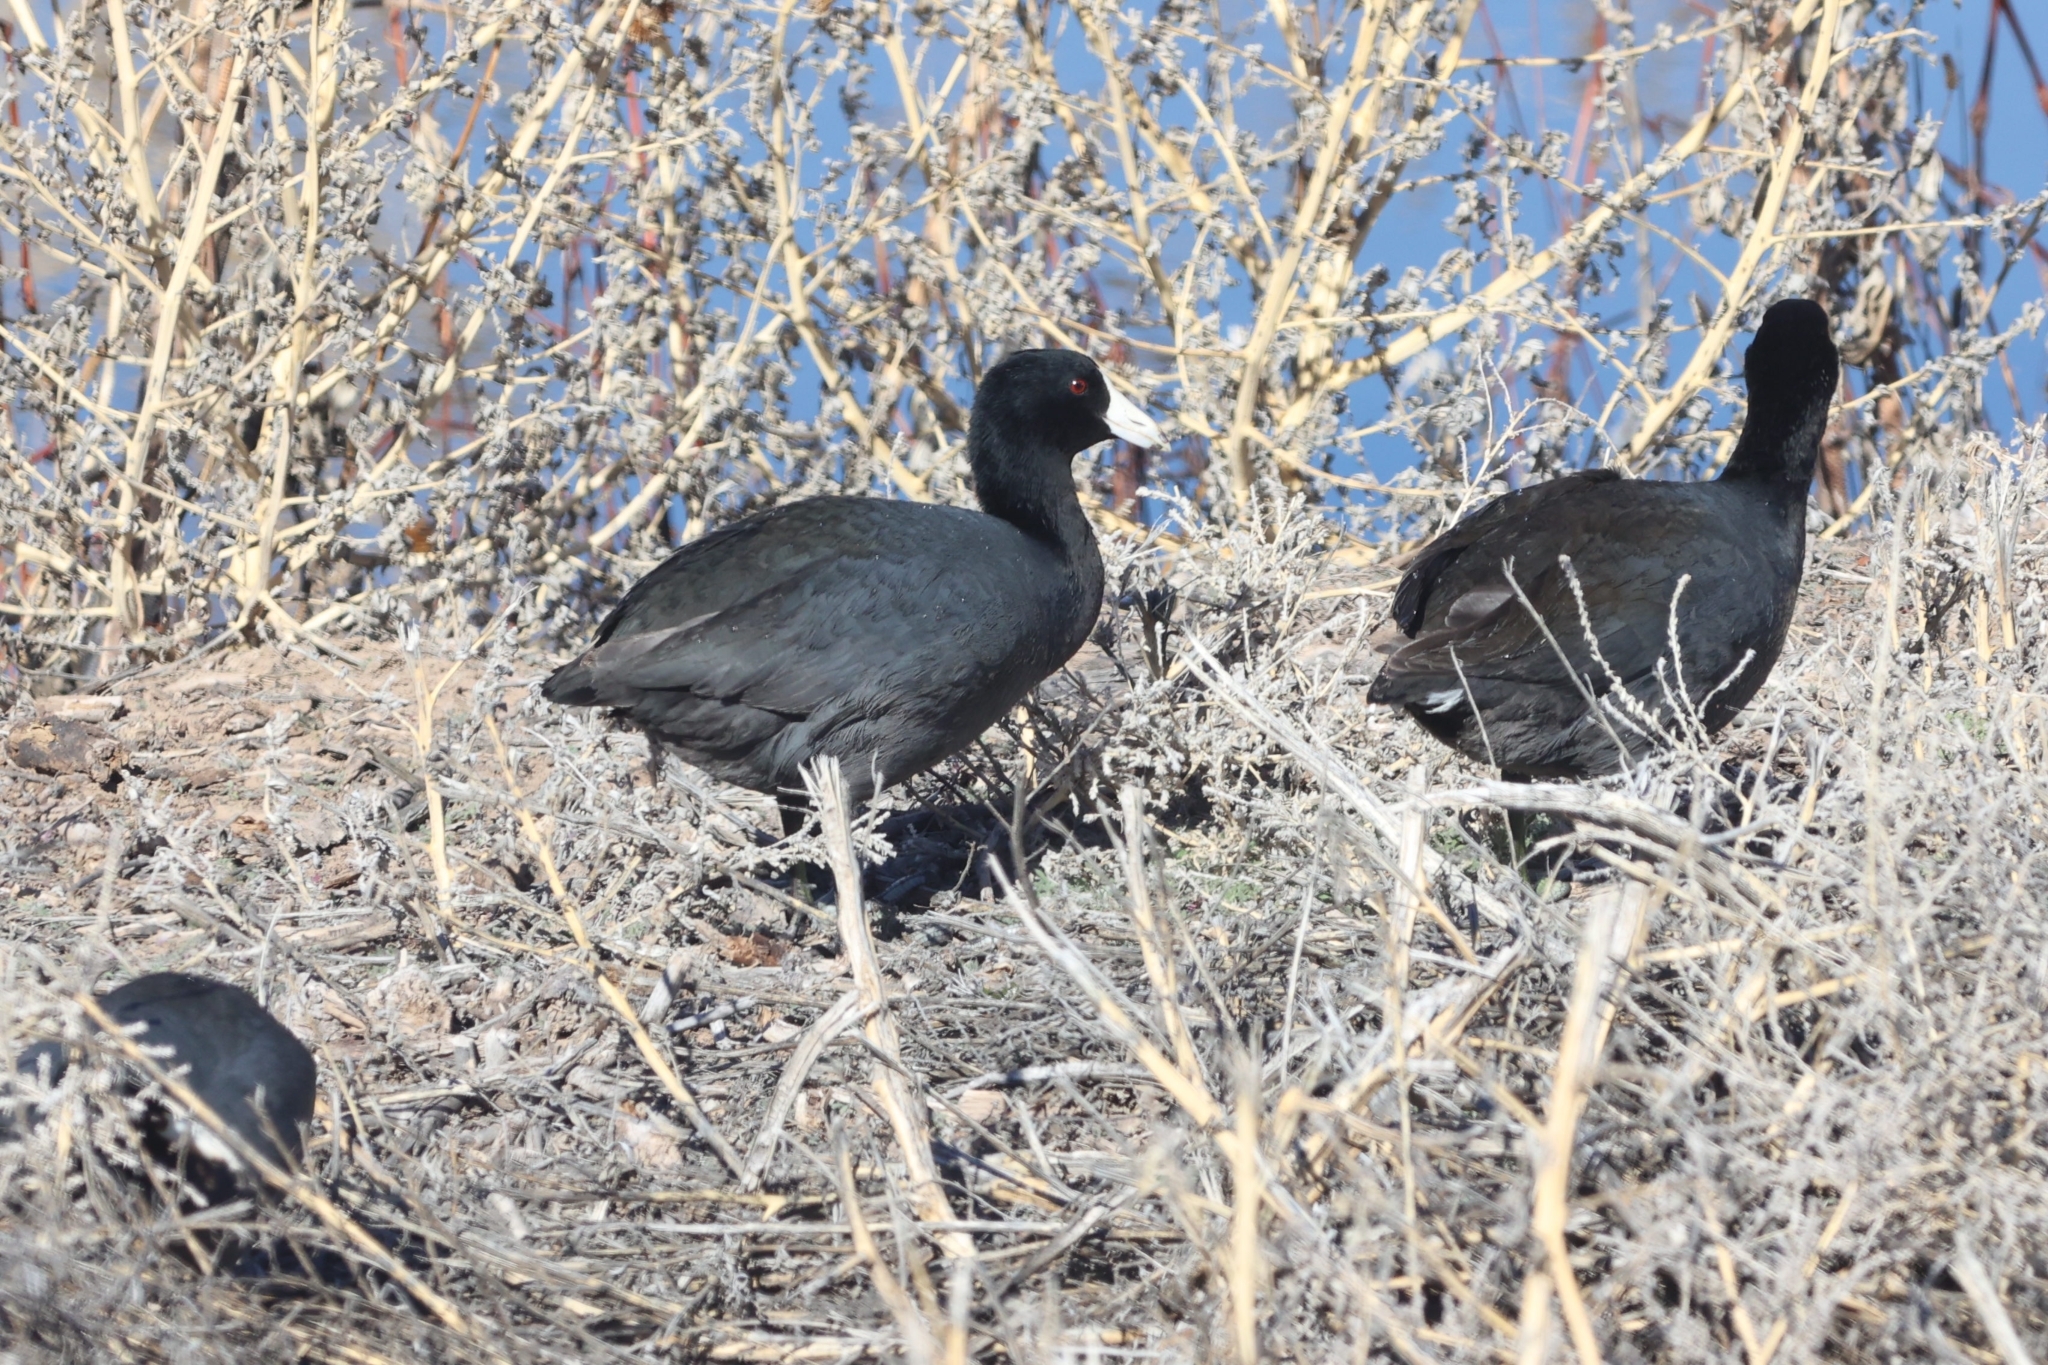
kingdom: Animalia
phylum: Chordata
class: Aves
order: Gruiformes
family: Rallidae
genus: Fulica
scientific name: Fulica americana
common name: American coot
